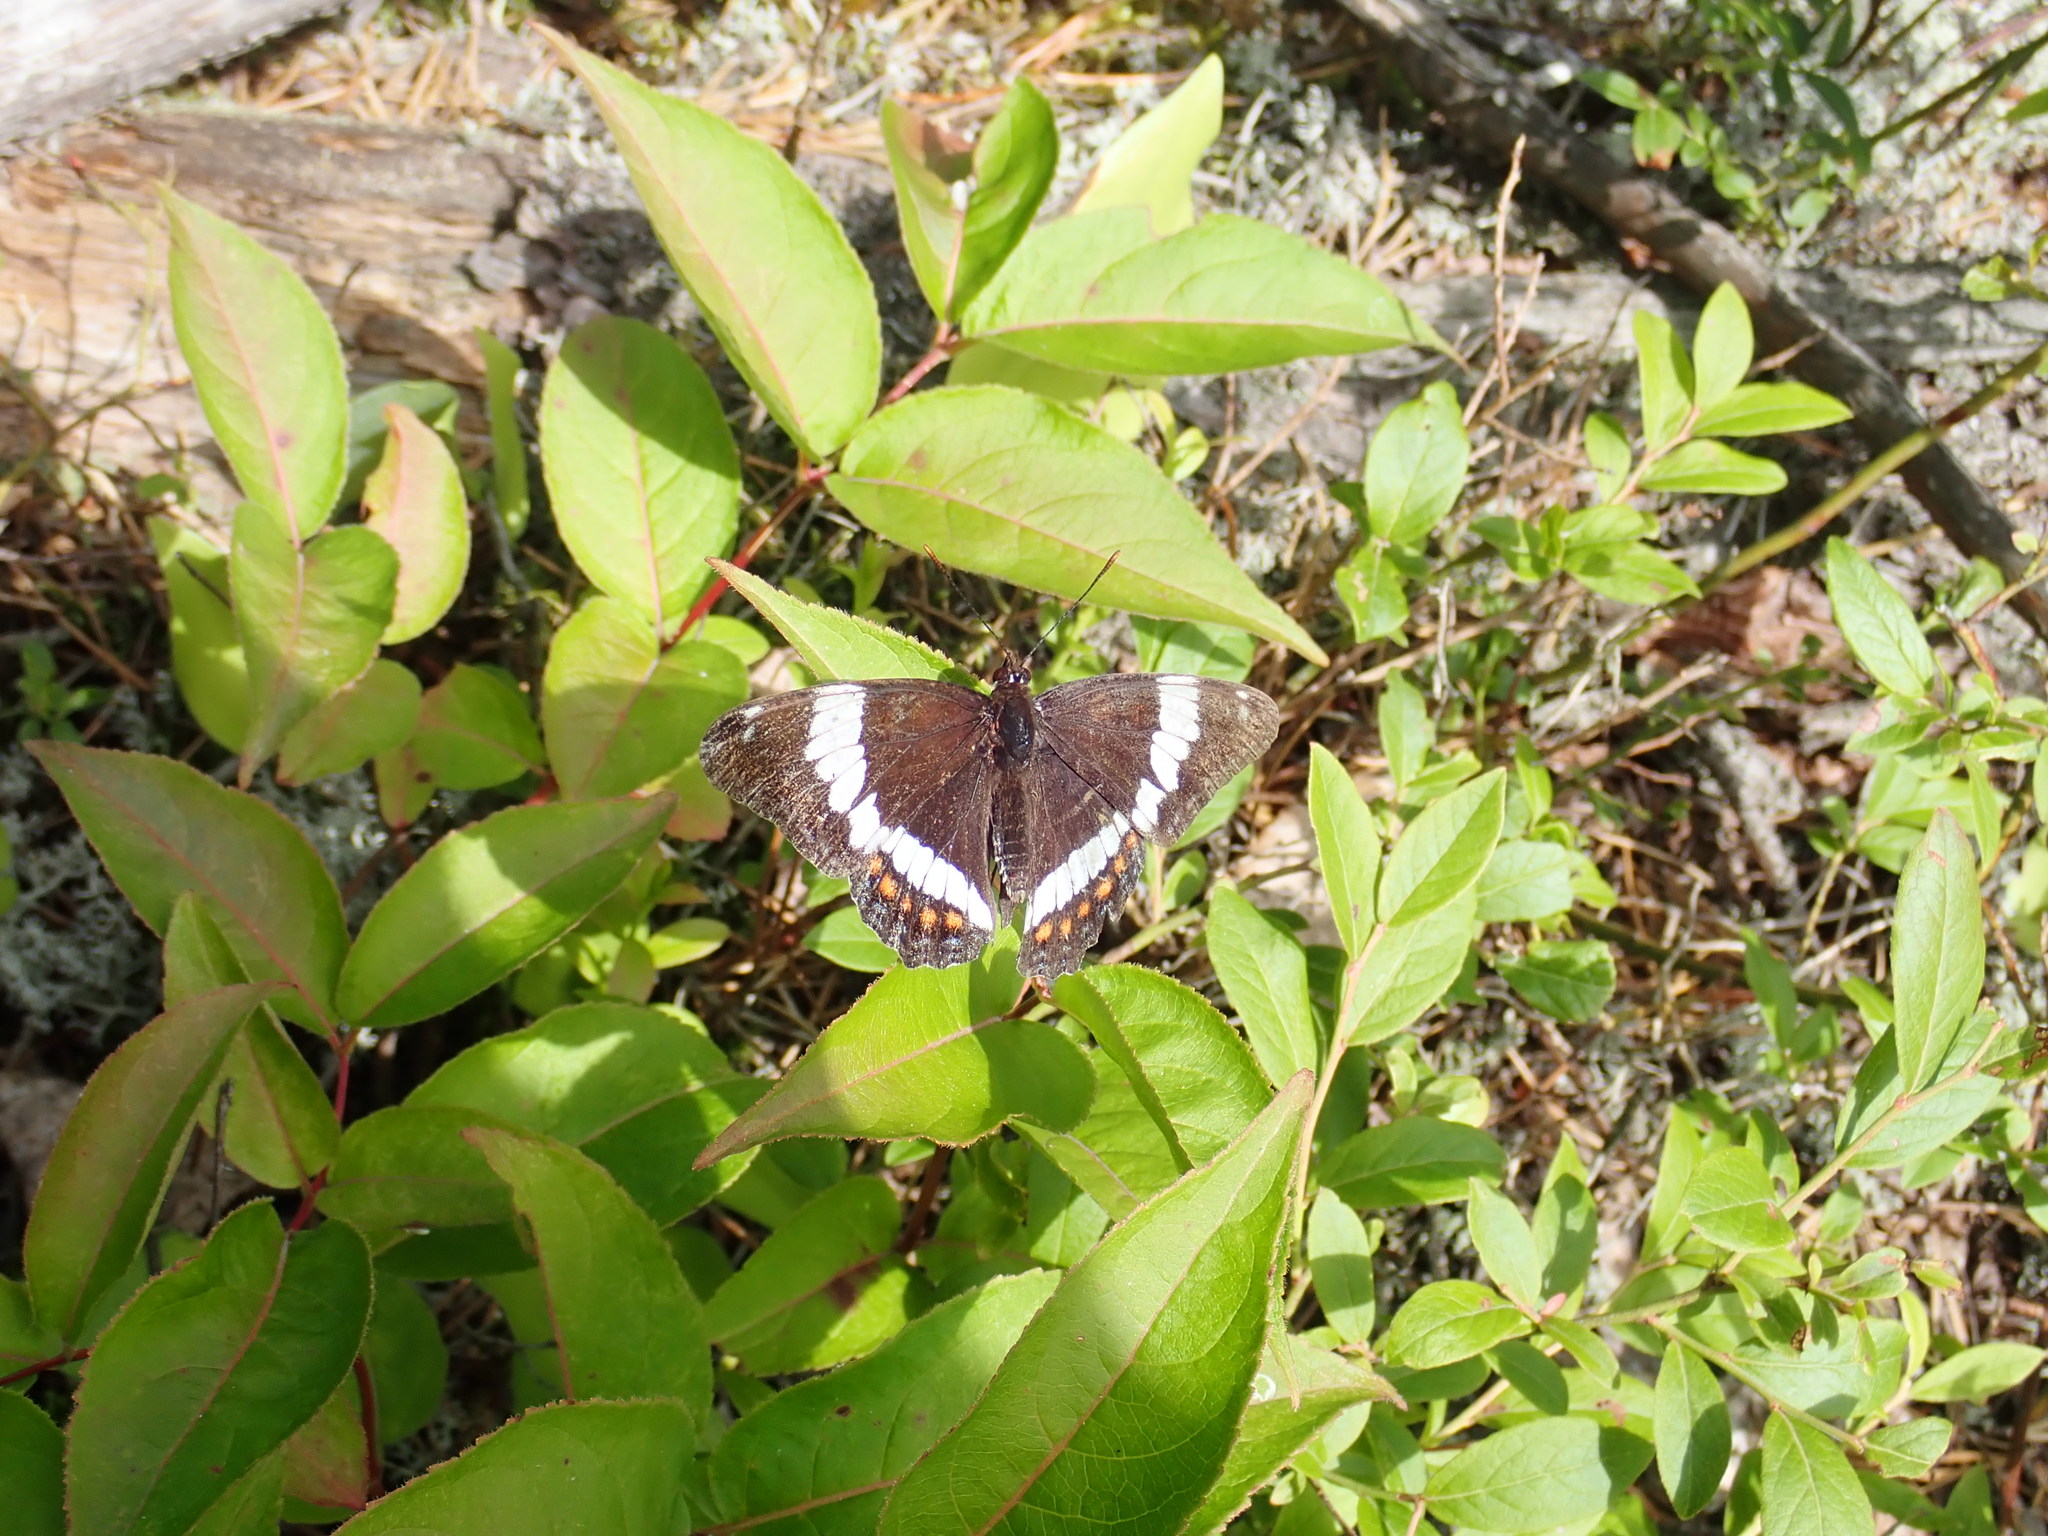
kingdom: Animalia
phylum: Arthropoda
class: Insecta
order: Lepidoptera
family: Nymphalidae
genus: Limenitis
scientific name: Limenitis arthemis
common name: Red-spotted admiral
